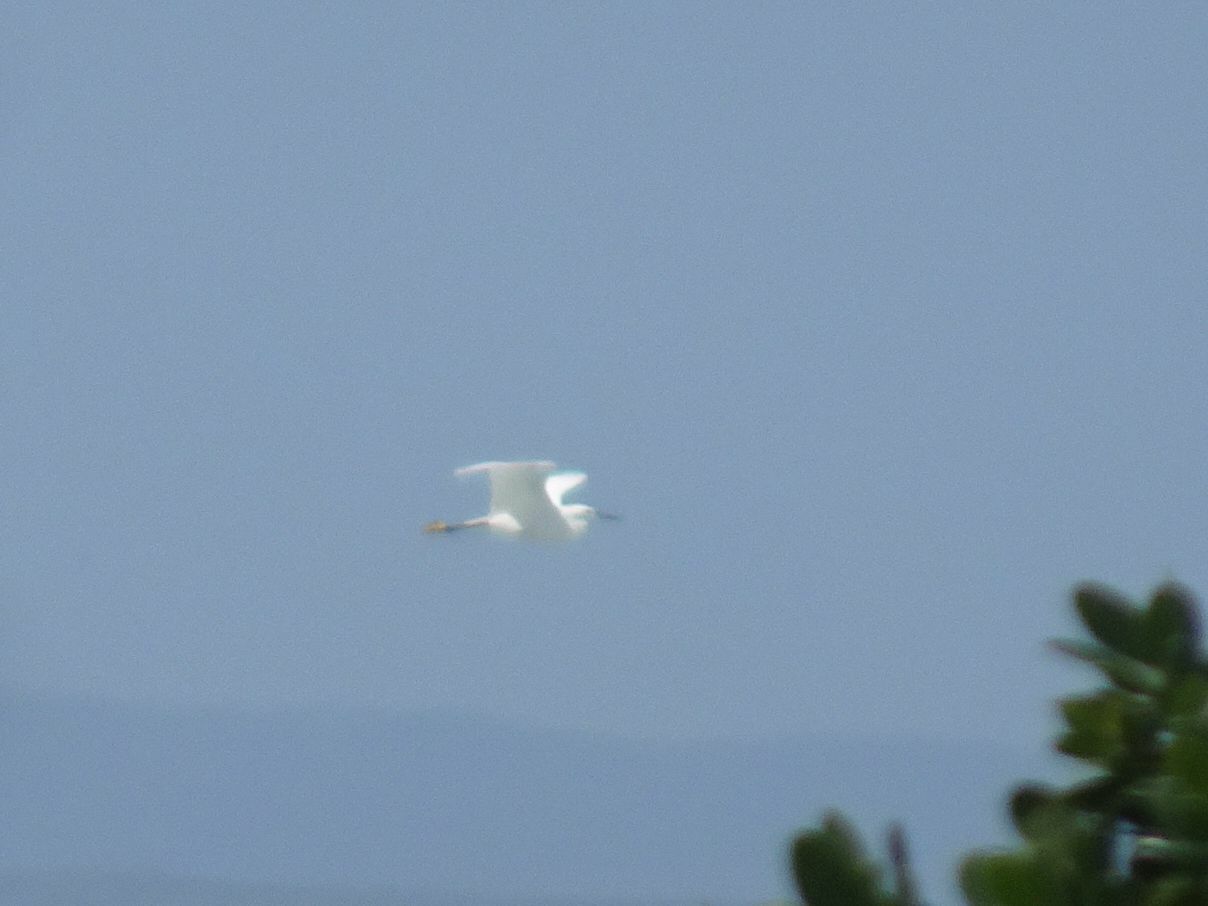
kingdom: Animalia
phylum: Chordata
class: Aves
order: Pelecaniformes
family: Ardeidae
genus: Egretta
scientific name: Egretta garzetta
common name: Little egret
